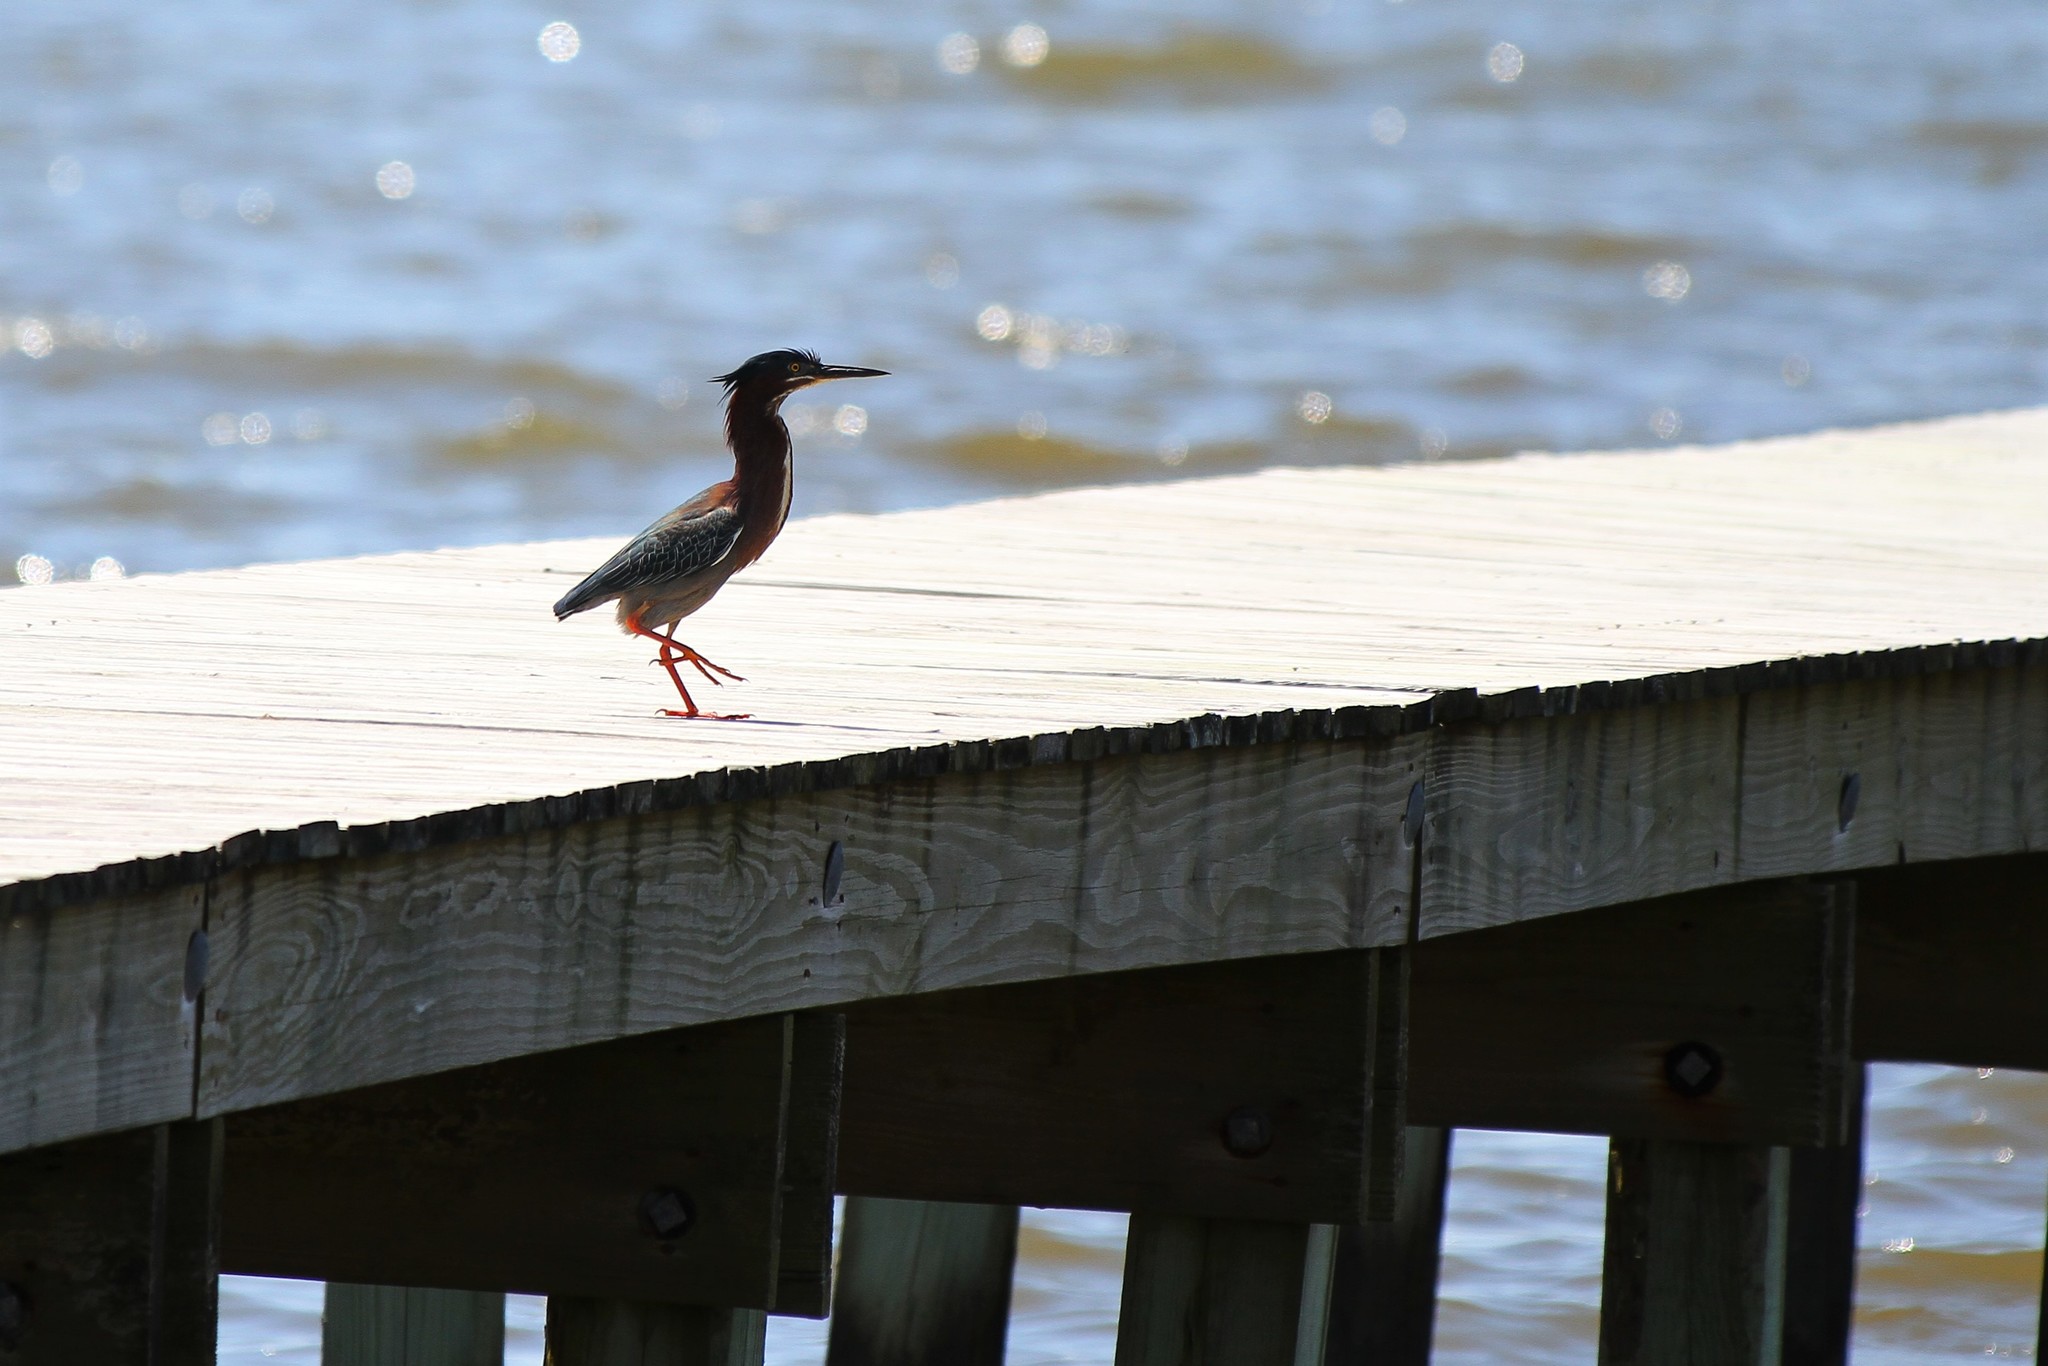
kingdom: Animalia
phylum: Chordata
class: Aves
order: Pelecaniformes
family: Ardeidae
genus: Butorides
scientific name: Butorides virescens
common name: Green heron
